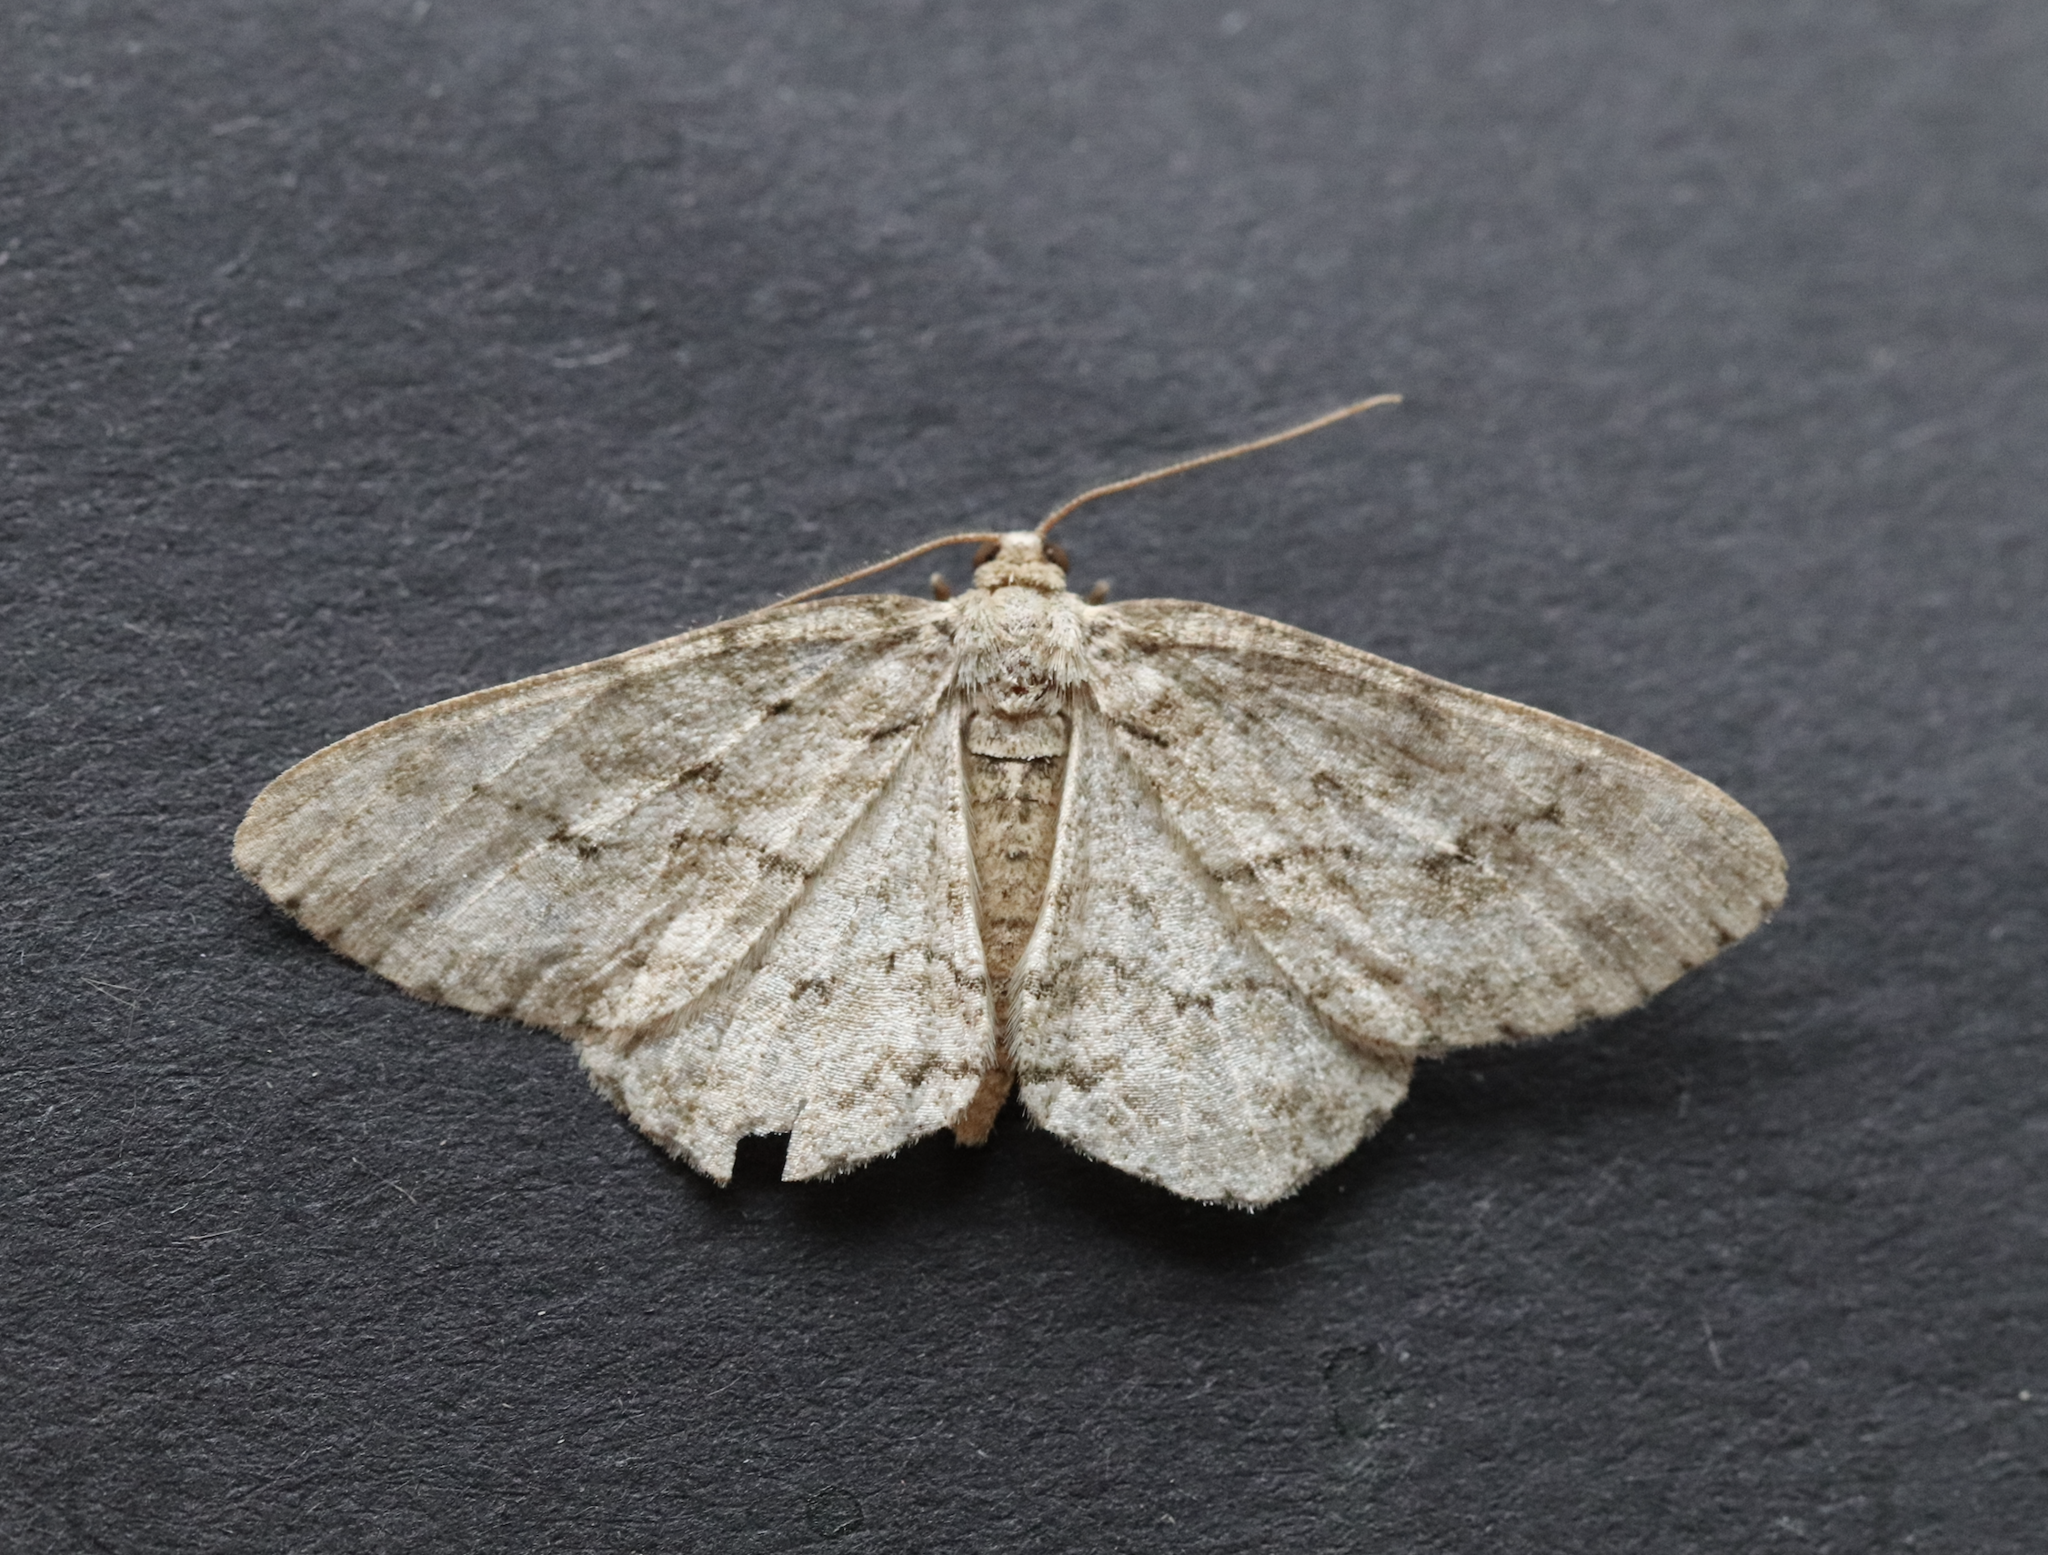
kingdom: Animalia
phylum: Arthropoda
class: Insecta
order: Lepidoptera
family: Geometridae
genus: Ectropis
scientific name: Ectropis crepuscularia
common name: Engrailed
